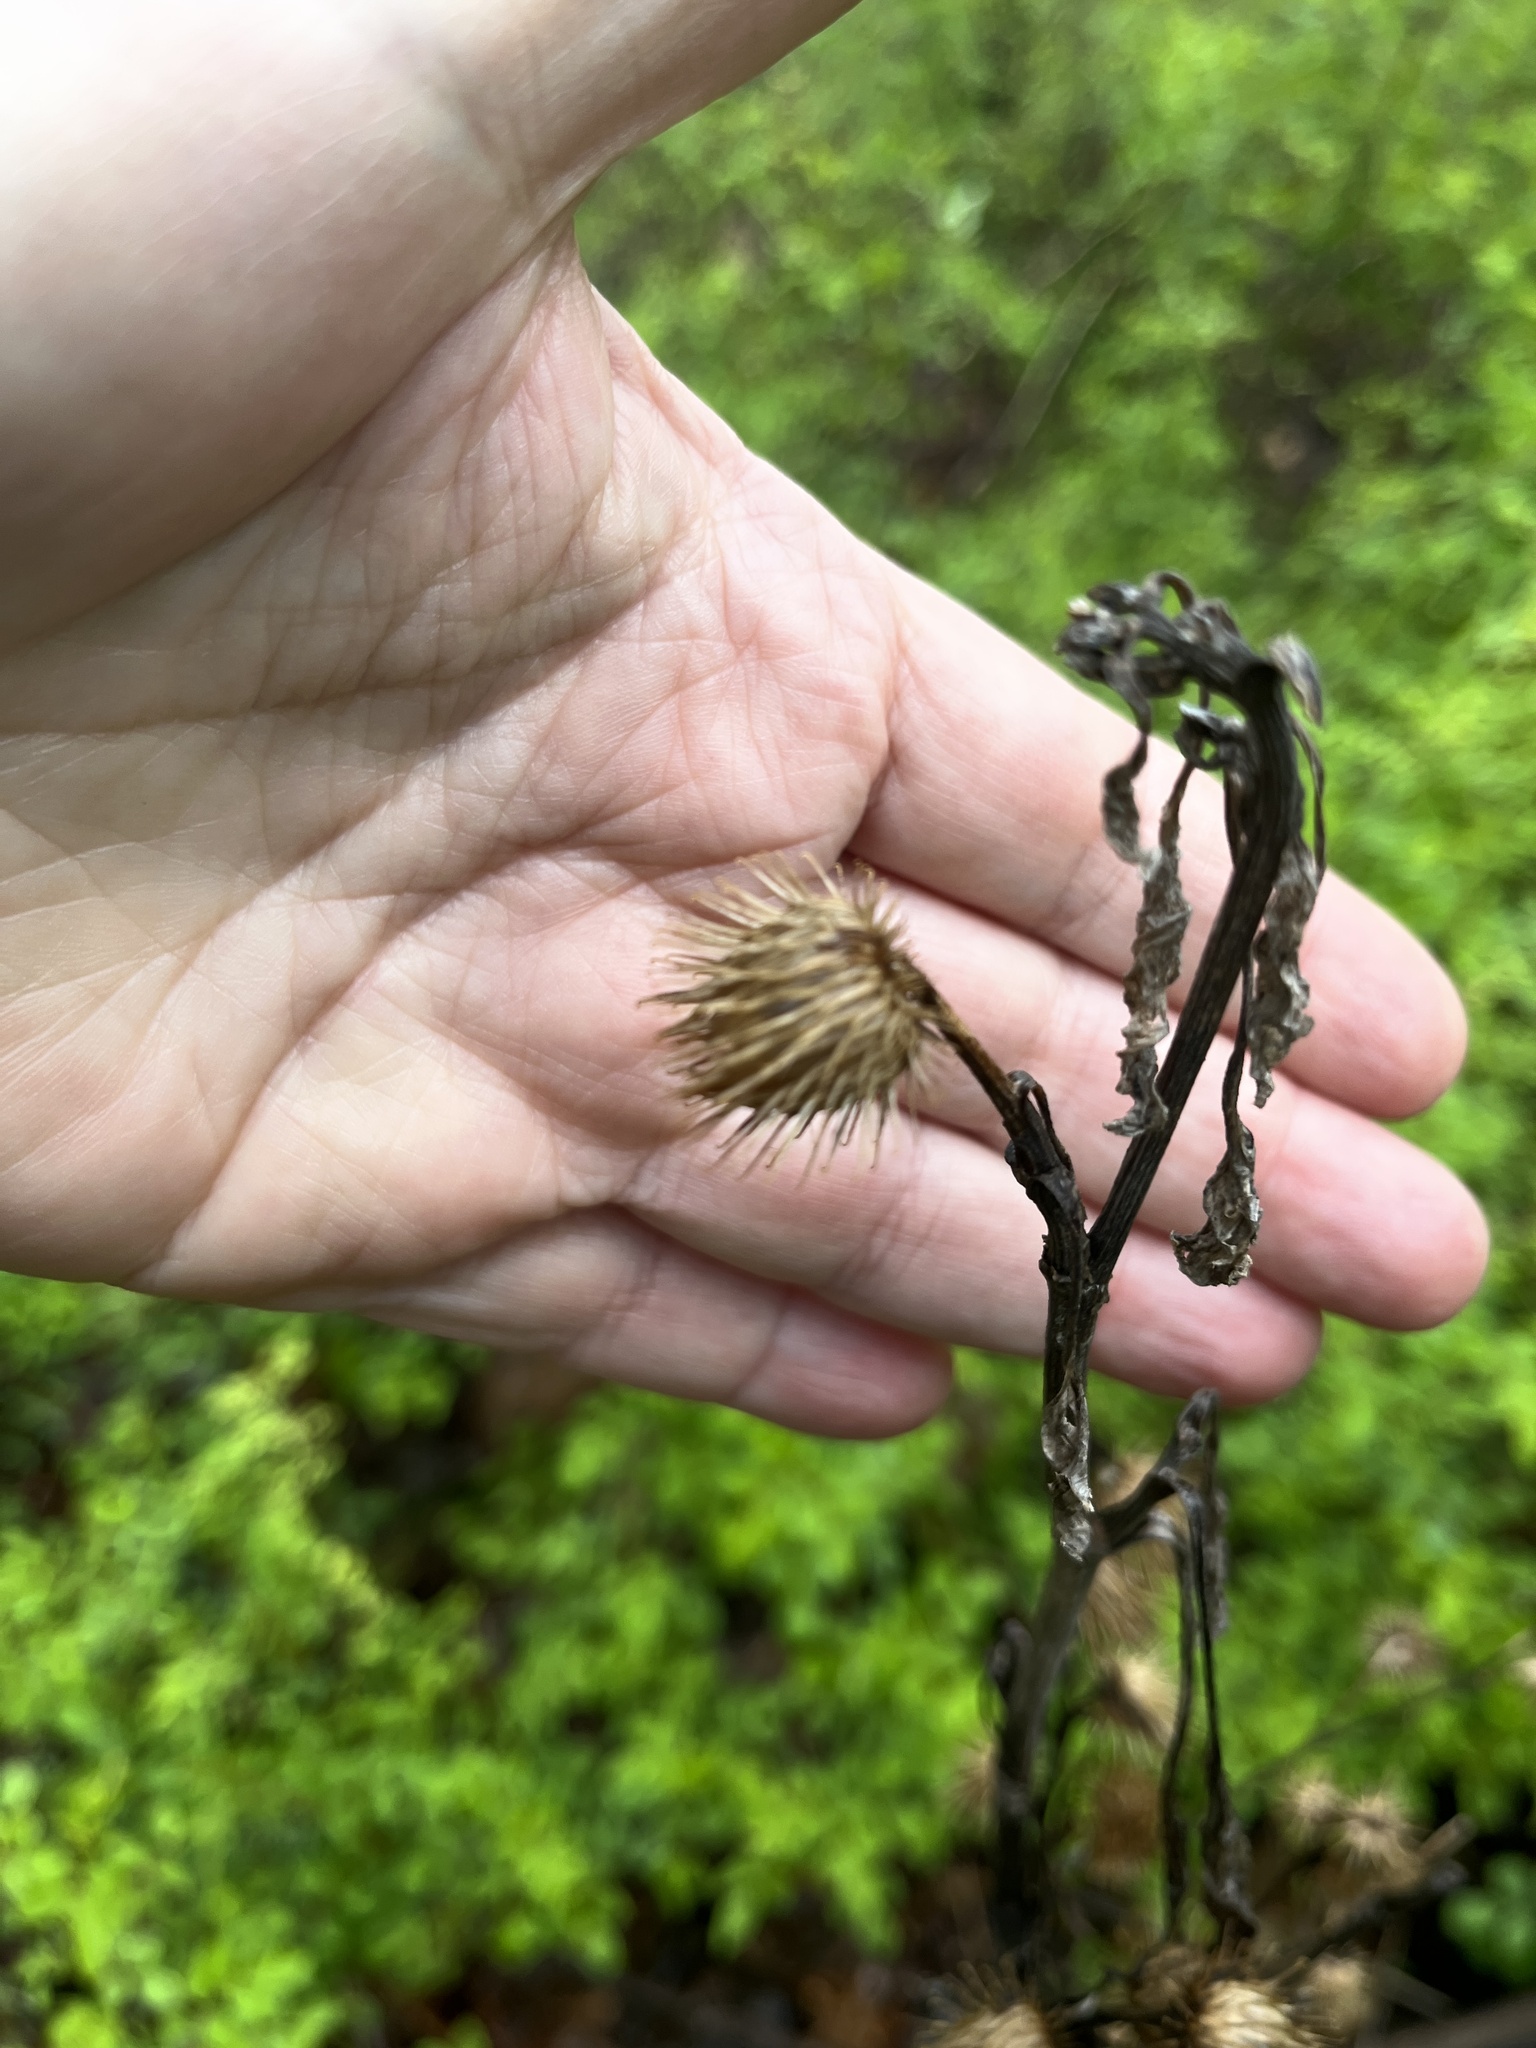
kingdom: Plantae
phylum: Tracheophyta
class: Magnoliopsida
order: Asterales
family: Asteraceae
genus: Arctium
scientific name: Arctium minus
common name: Lesser burdock
